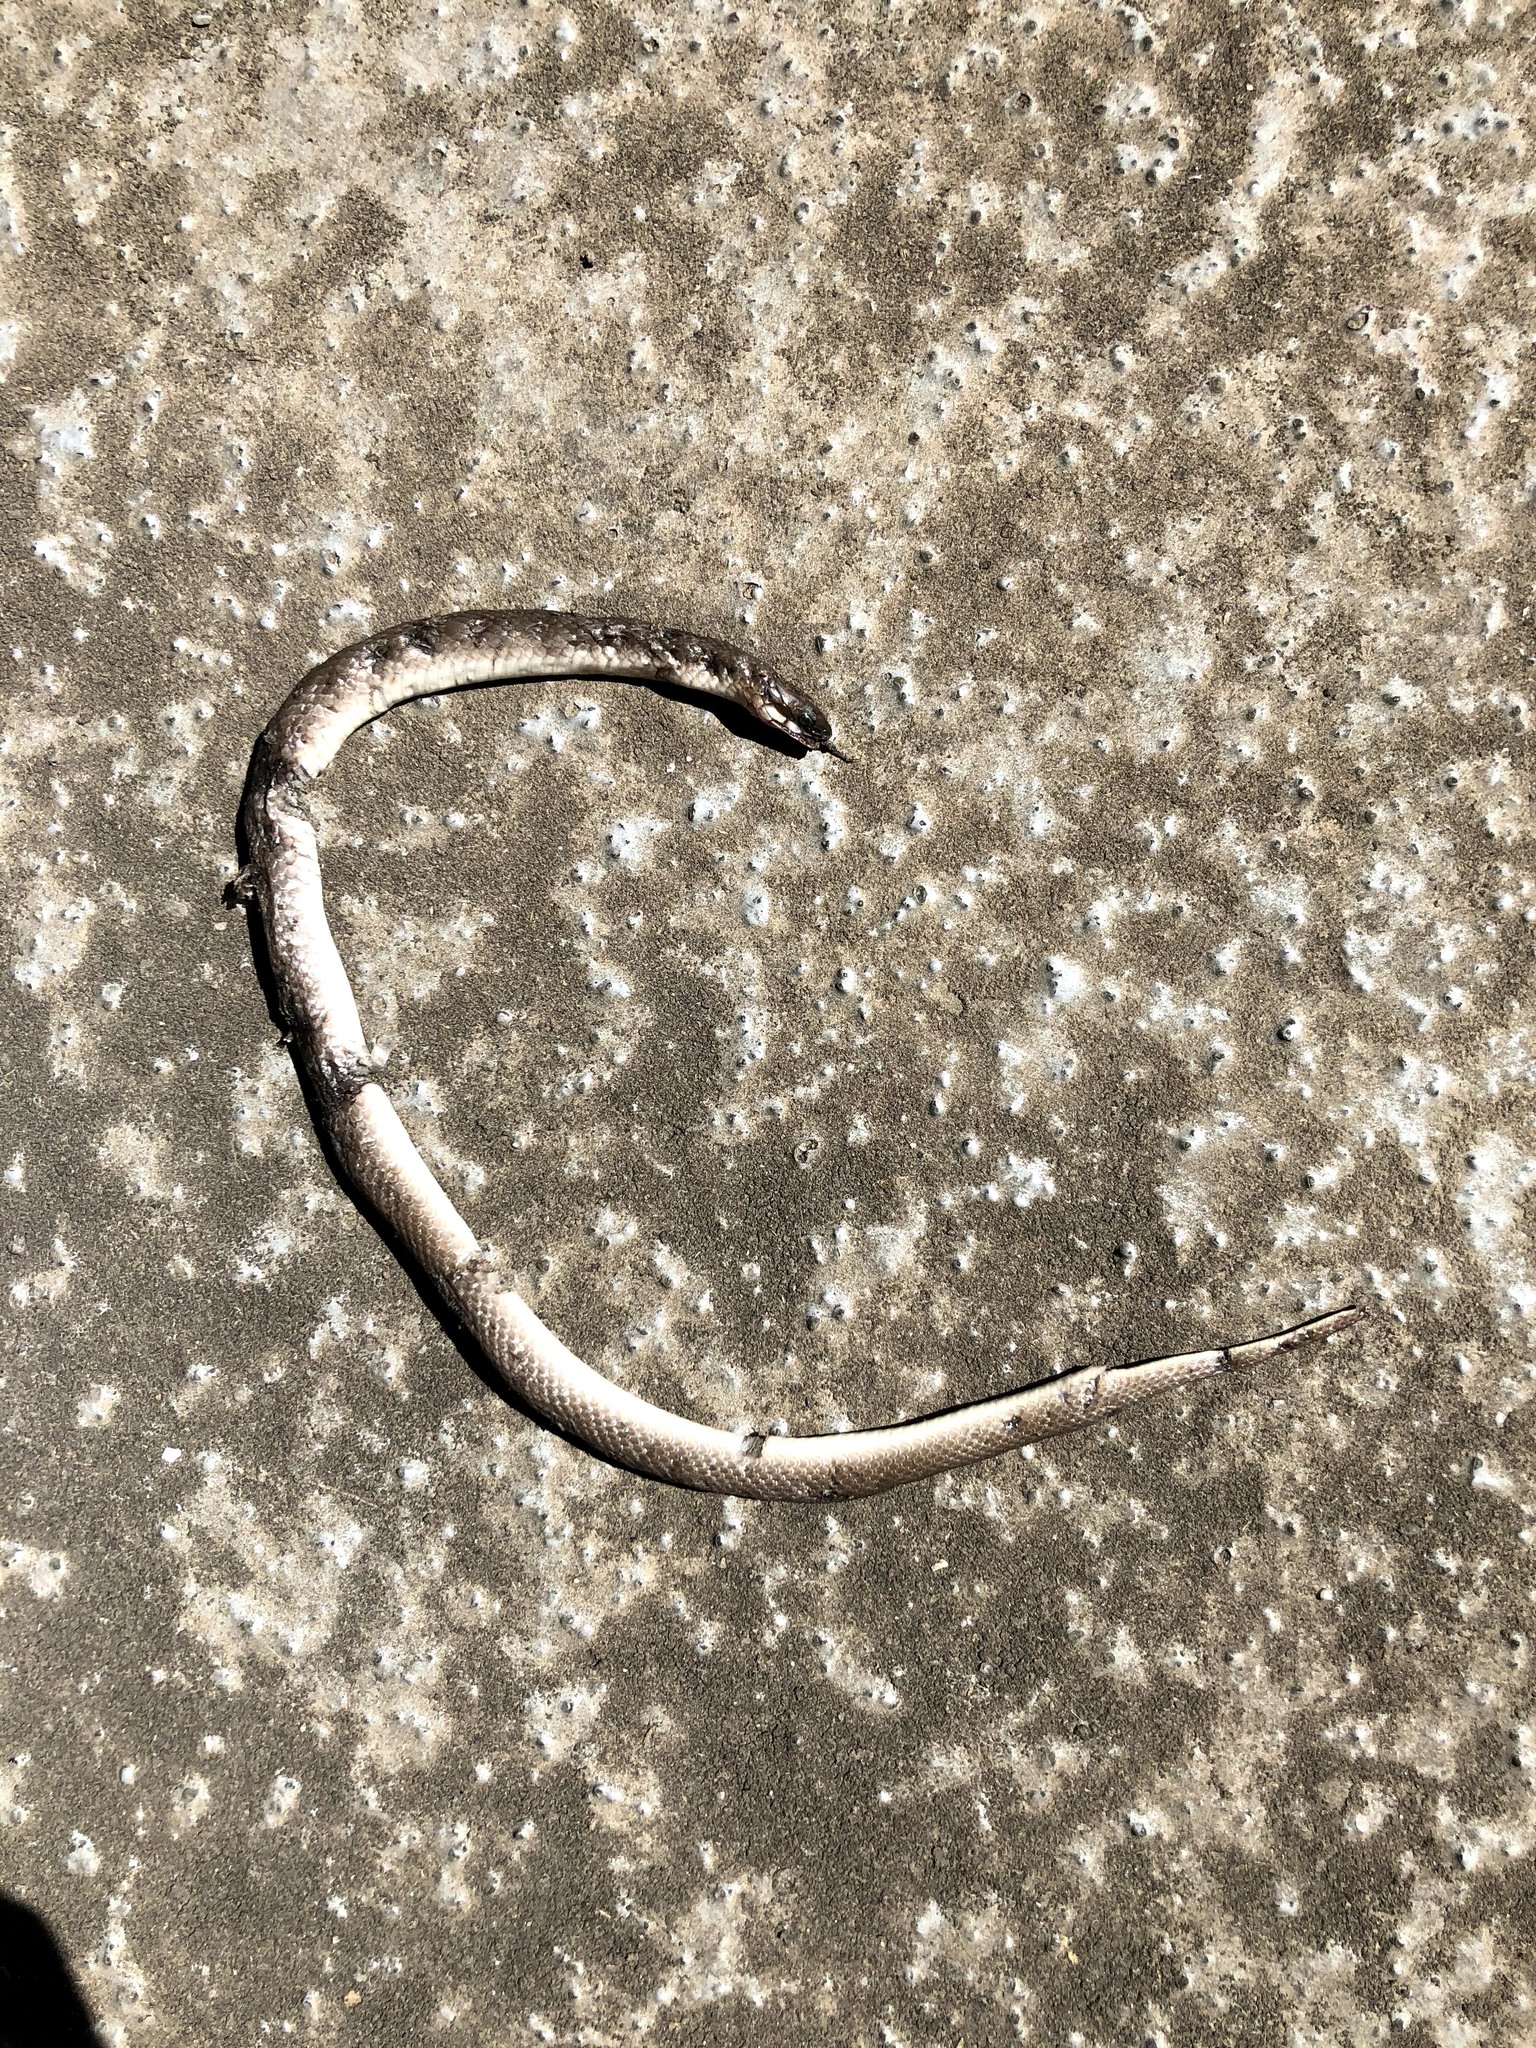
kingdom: Animalia
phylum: Chordata
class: Squamata
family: Colubridae
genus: Haldea
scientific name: Haldea striatula
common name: Rough earth snake
